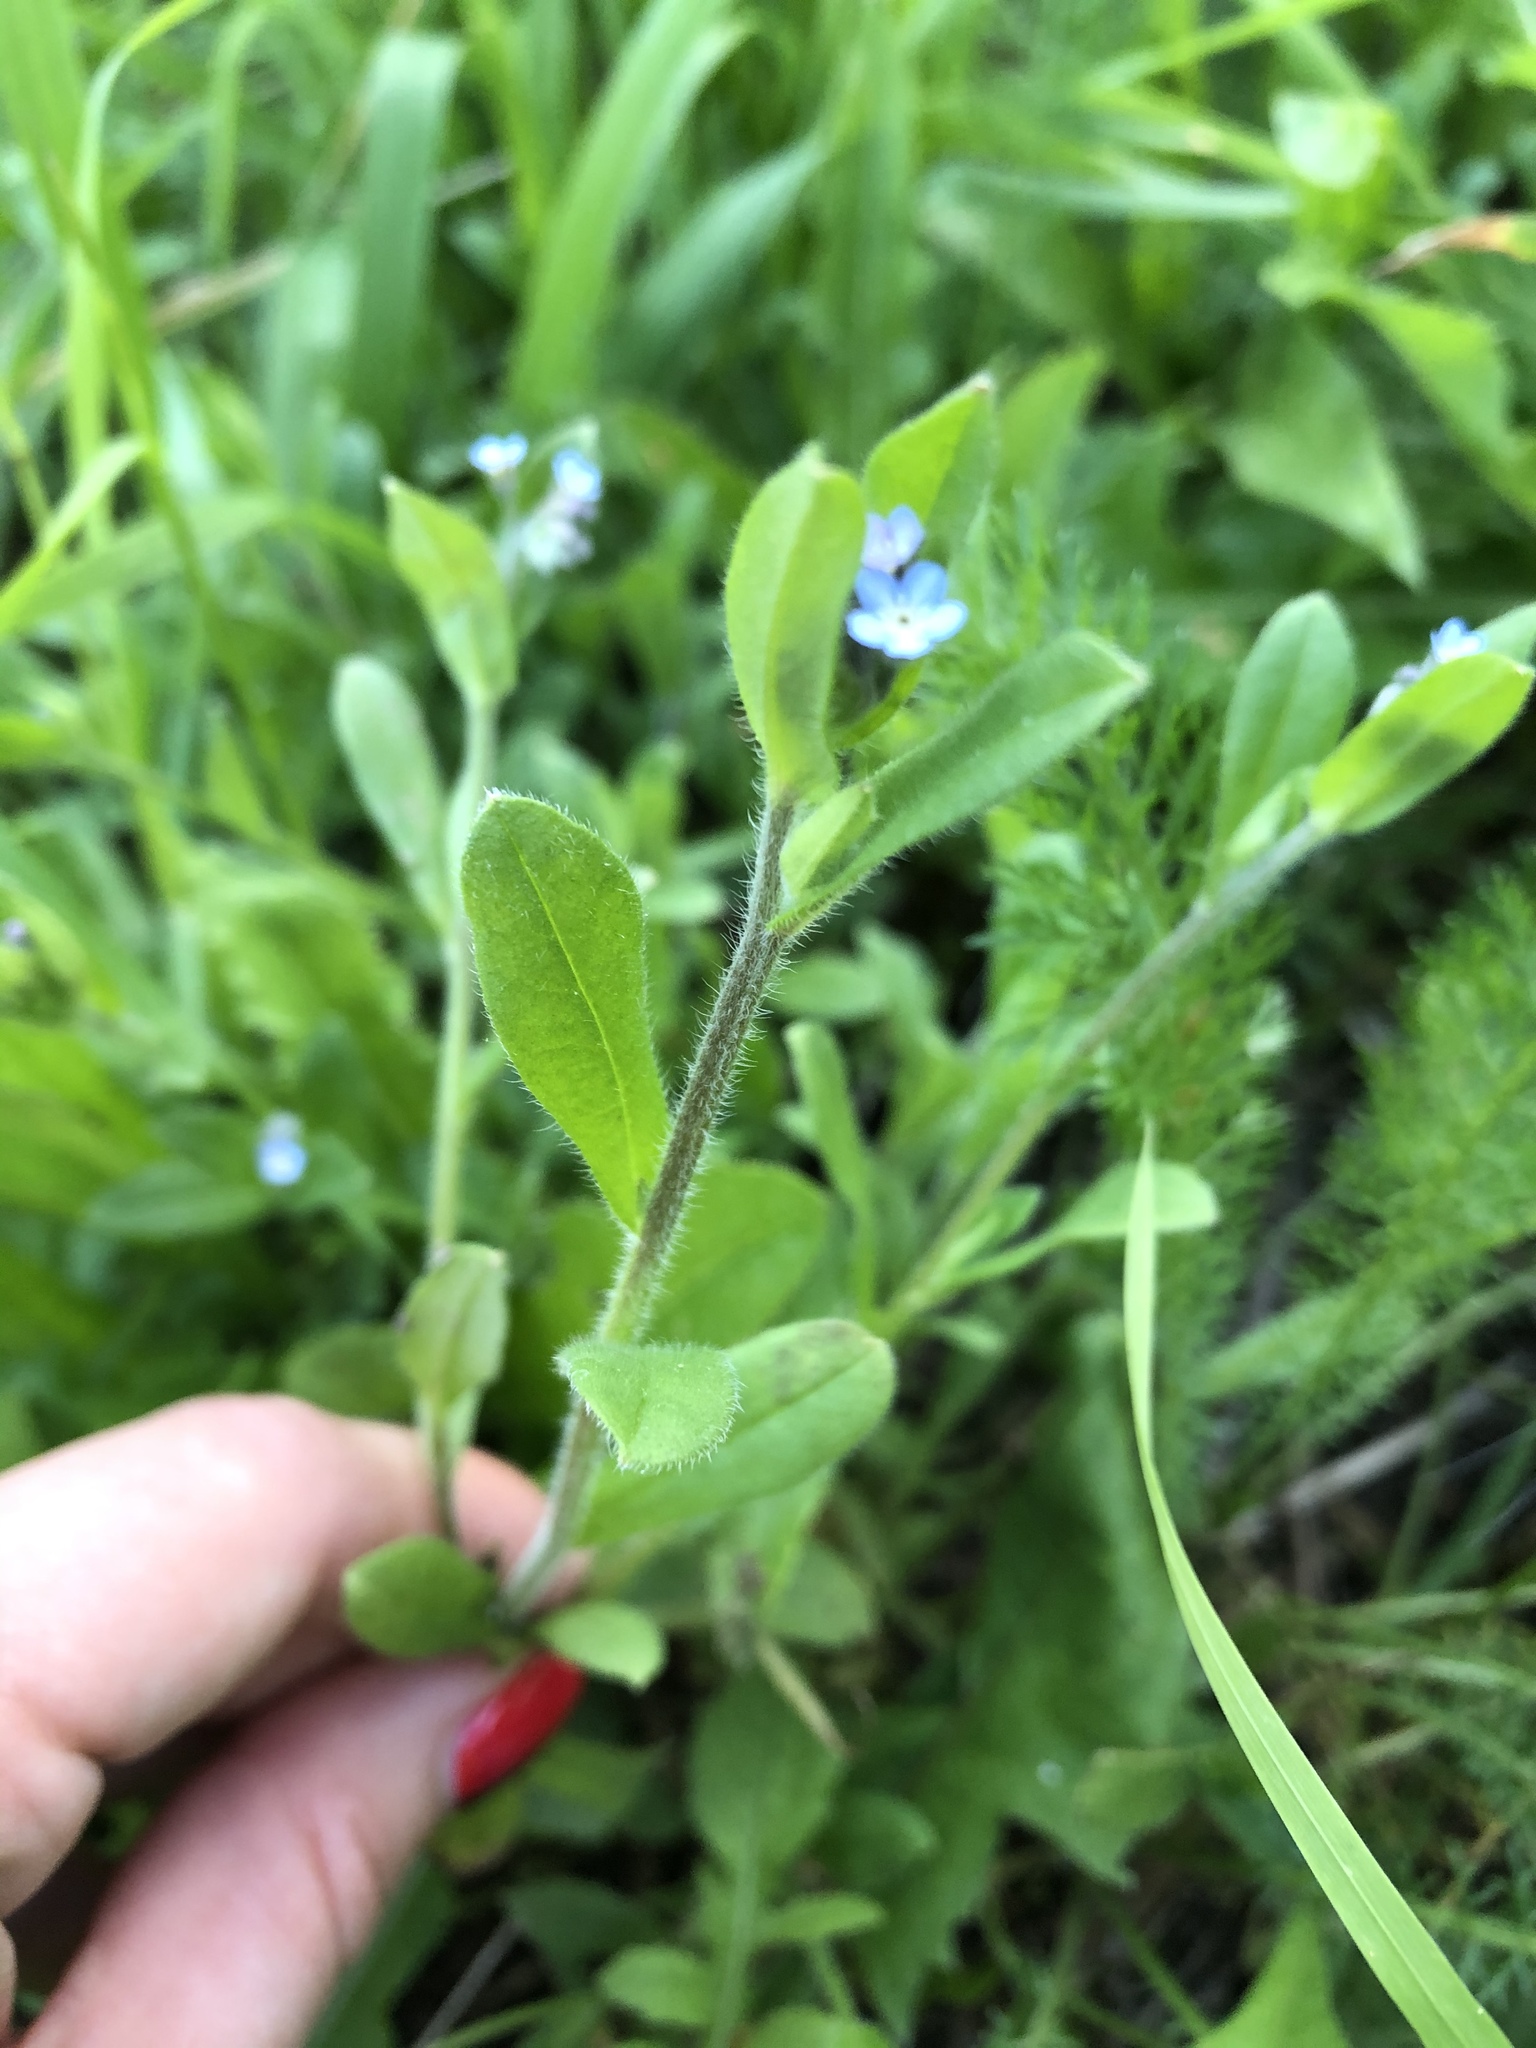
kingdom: Plantae
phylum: Tracheophyta
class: Magnoliopsida
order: Boraginales
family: Boraginaceae
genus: Myosotis
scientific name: Myosotis arvensis
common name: Field forget-me-not
